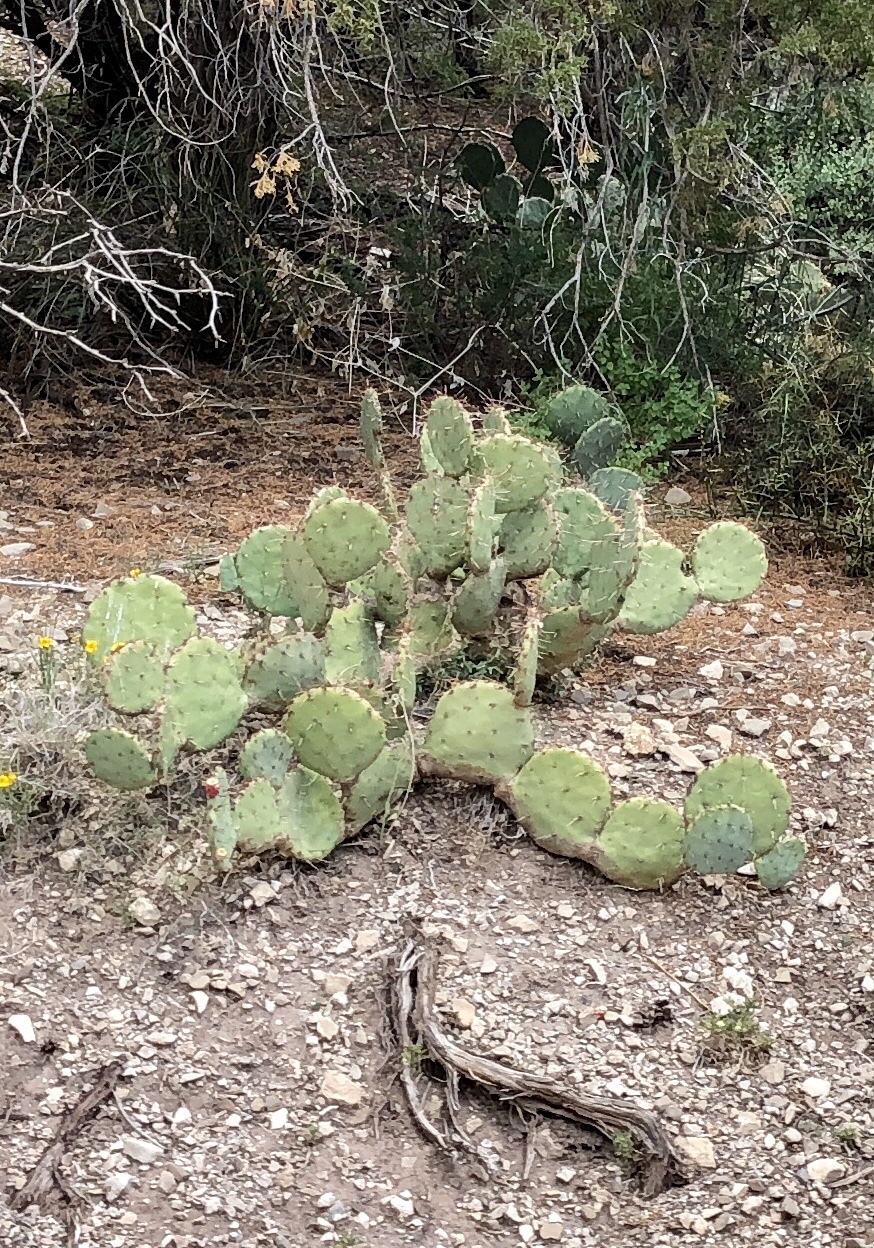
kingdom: Plantae
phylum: Tracheophyta
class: Magnoliopsida
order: Caryophyllales
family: Cactaceae
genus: Opuntia
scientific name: Opuntia engelmannii
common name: Cactus-apple
